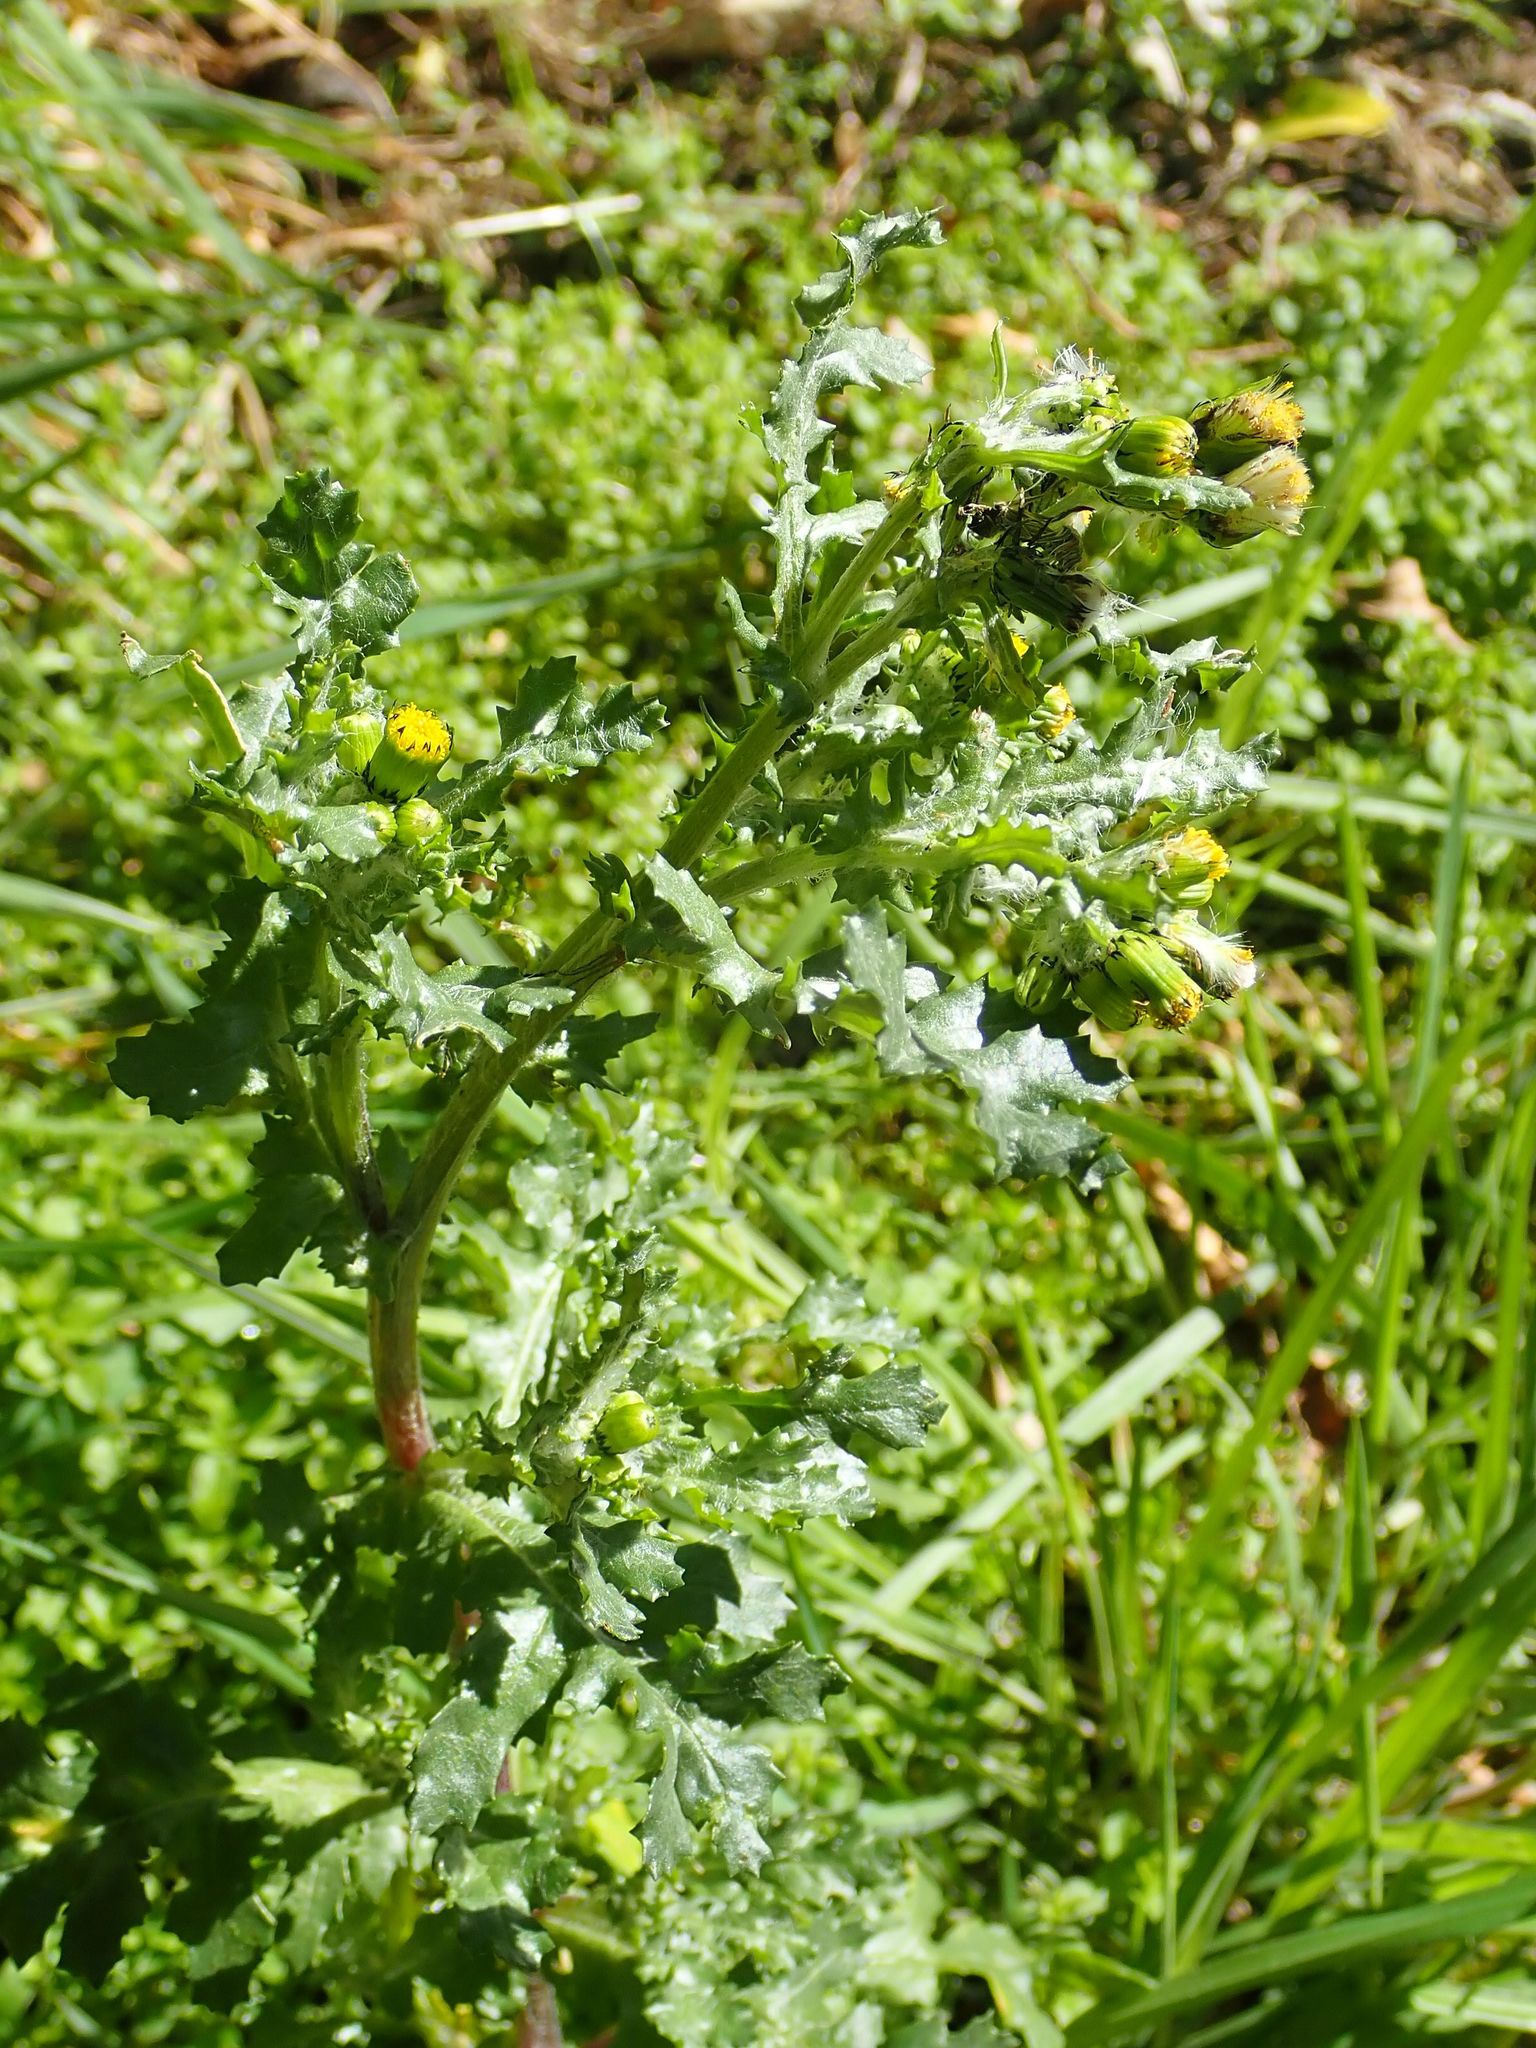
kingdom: Plantae
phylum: Tracheophyta
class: Magnoliopsida
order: Asterales
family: Asteraceae
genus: Senecio
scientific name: Senecio vulgaris
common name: Old-man-in-the-spring
